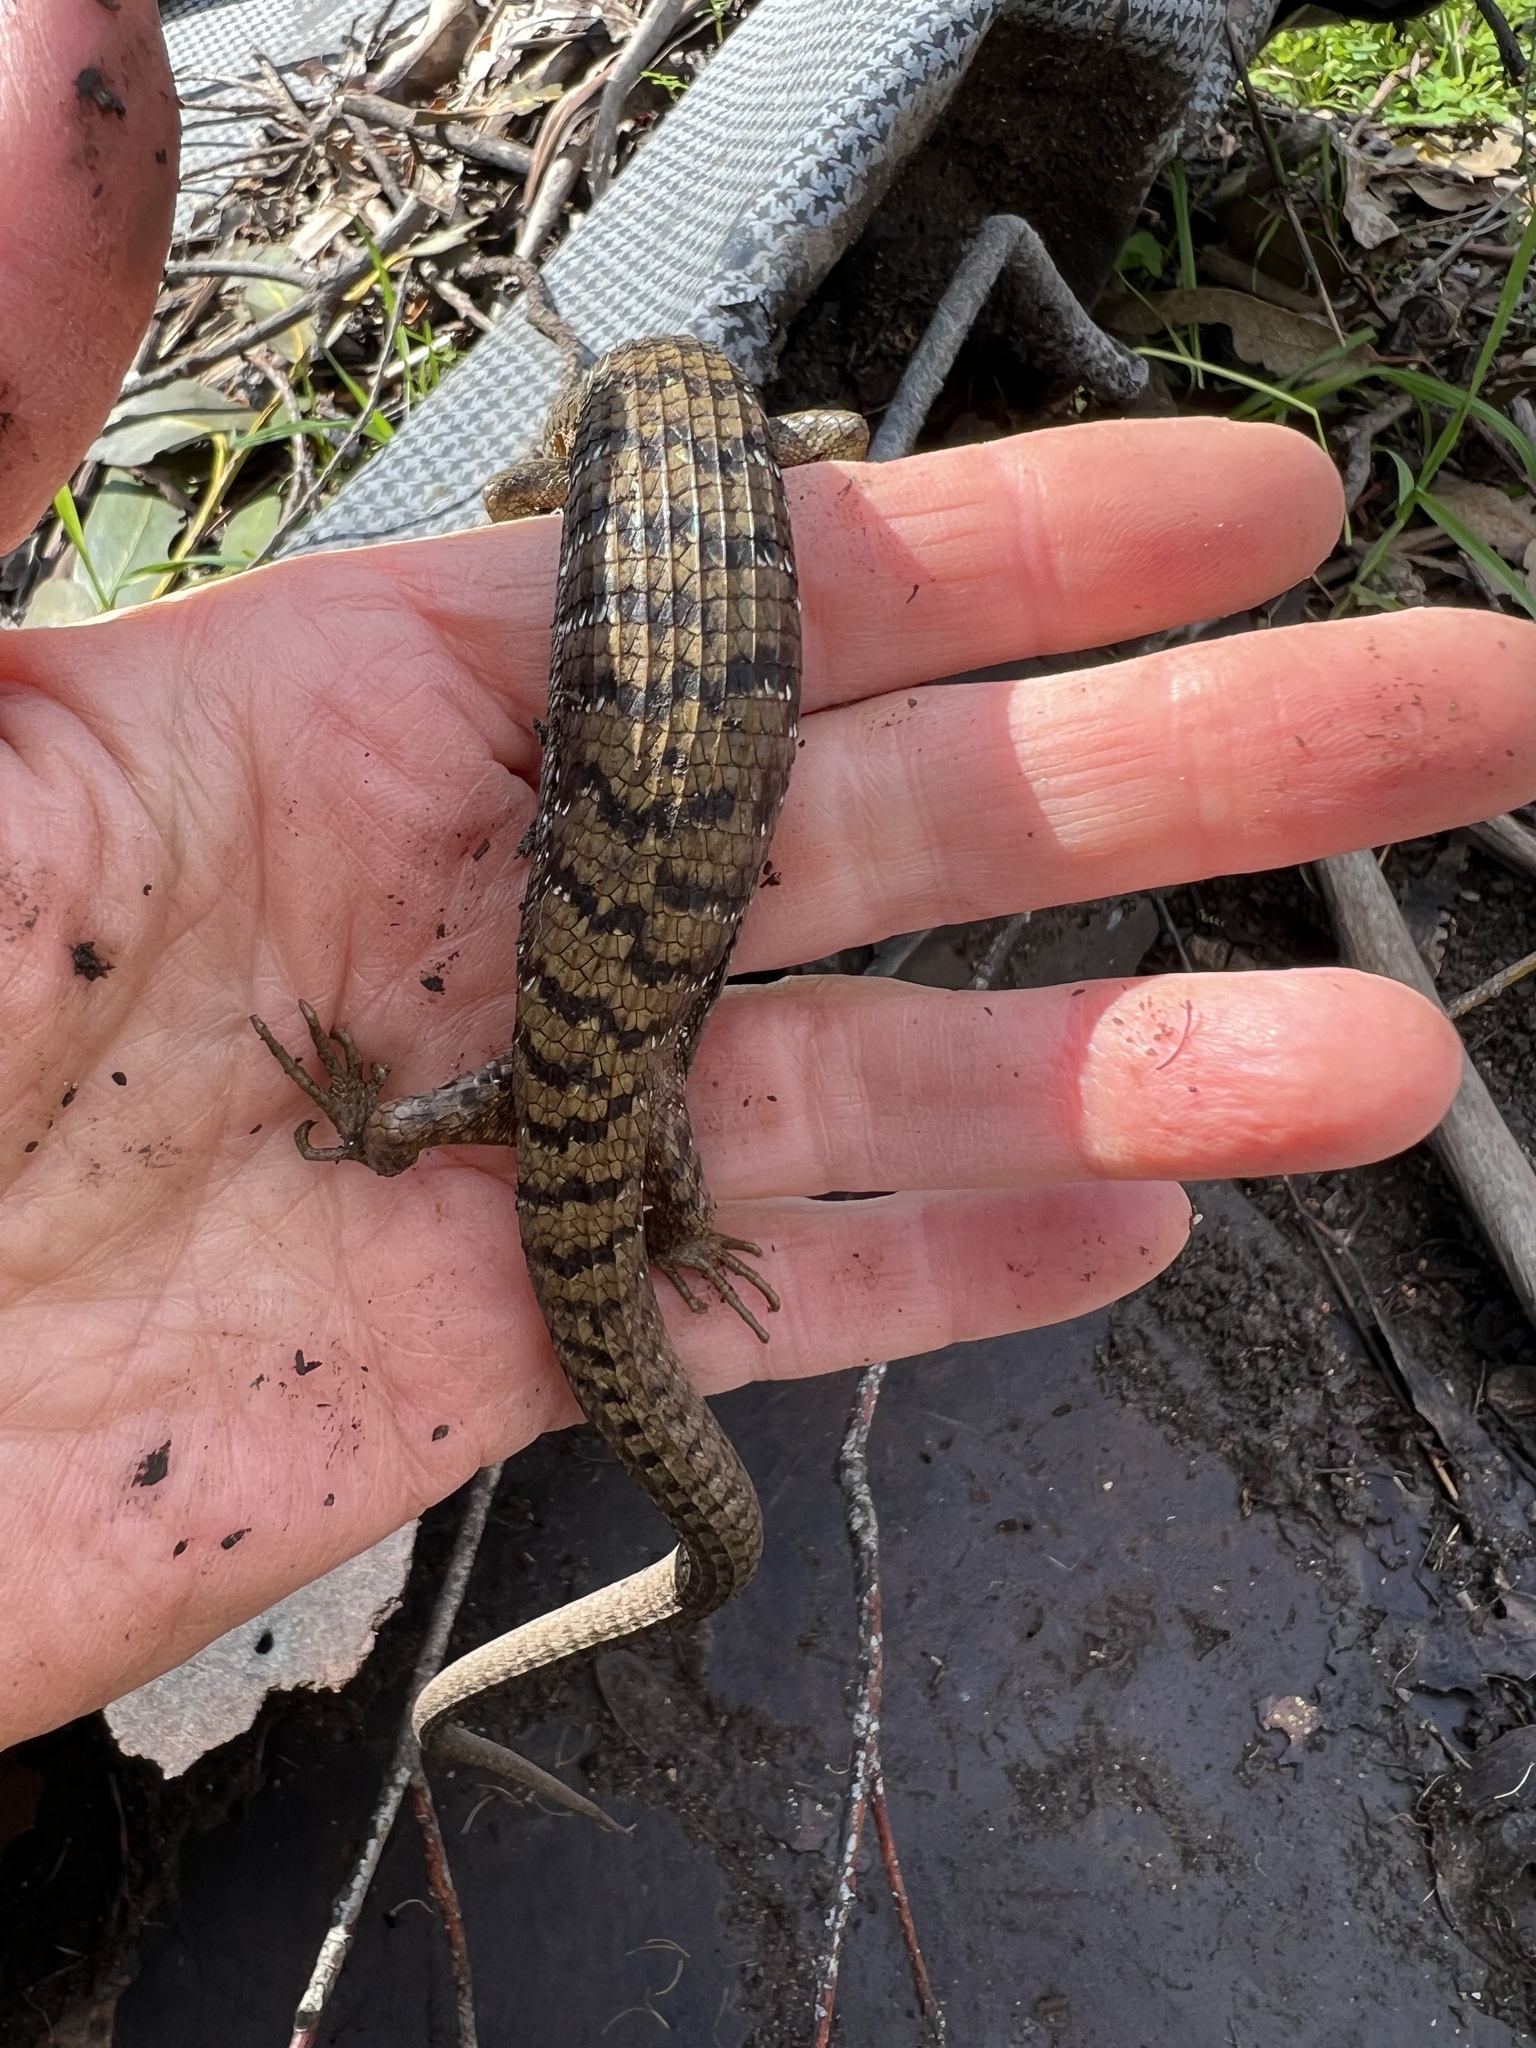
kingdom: Animalia
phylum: Chordata
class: Squamata
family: Anguidae
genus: Elgaria
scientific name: Elgaria multicarinata
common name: Southern alligator lizard
